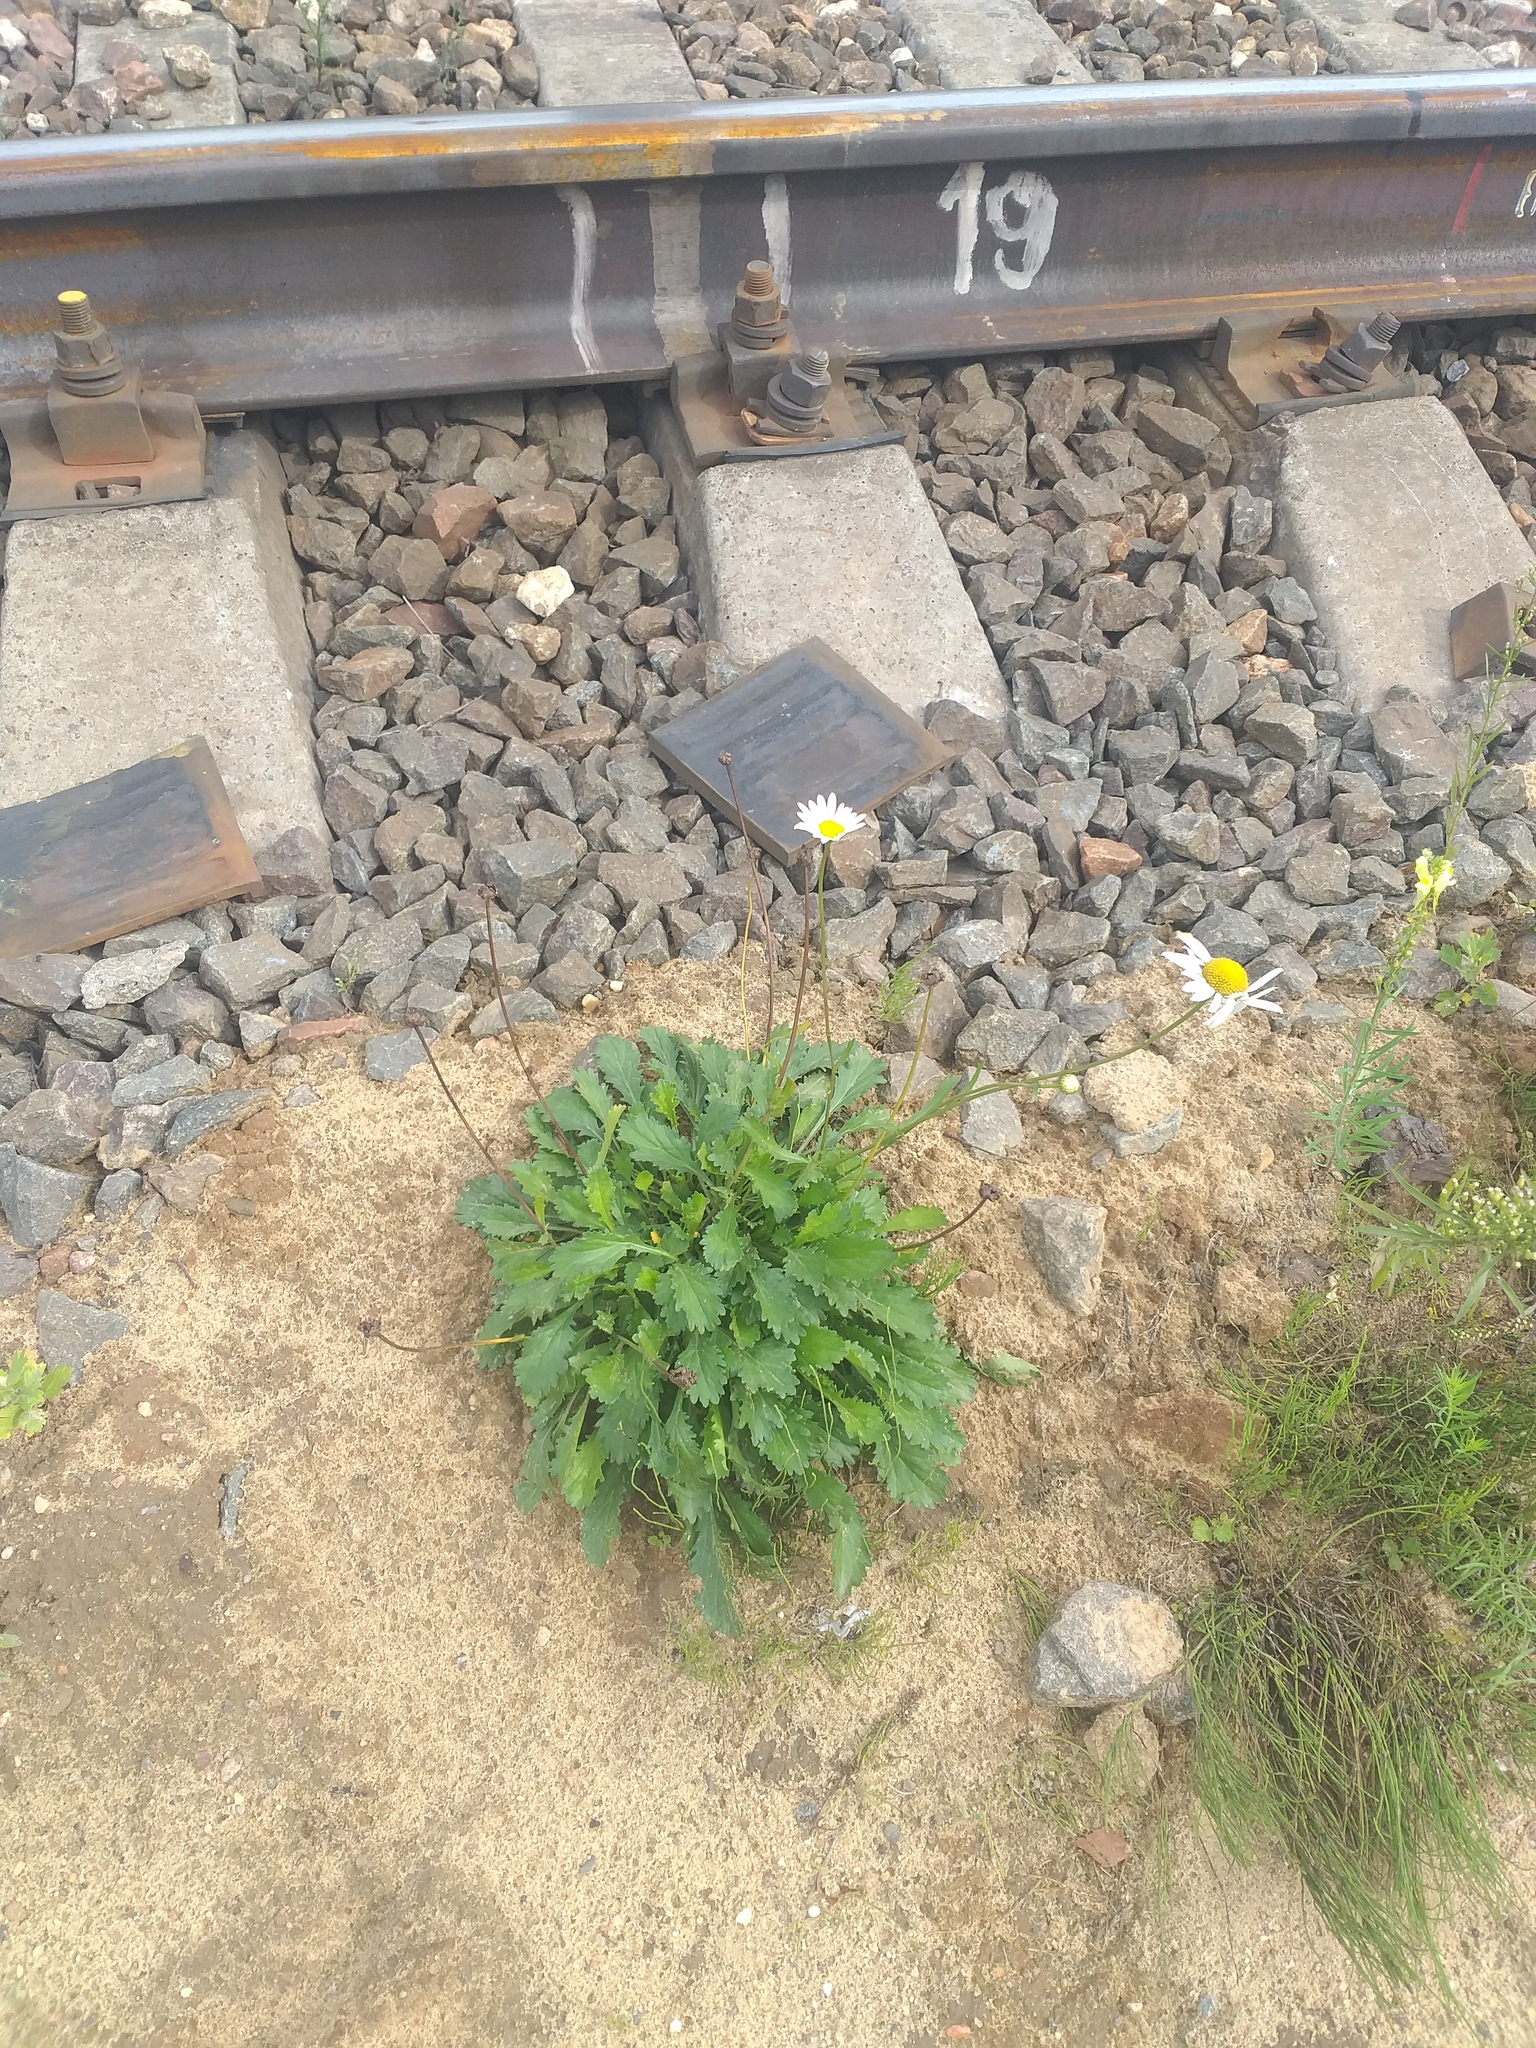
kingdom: Plantae
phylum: Tracheophyta
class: Magnoliopsida
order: Asterales
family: Asteraceae
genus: Leucanthemum
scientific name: Leucanthemum vulgare
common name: Oxeye daisy
